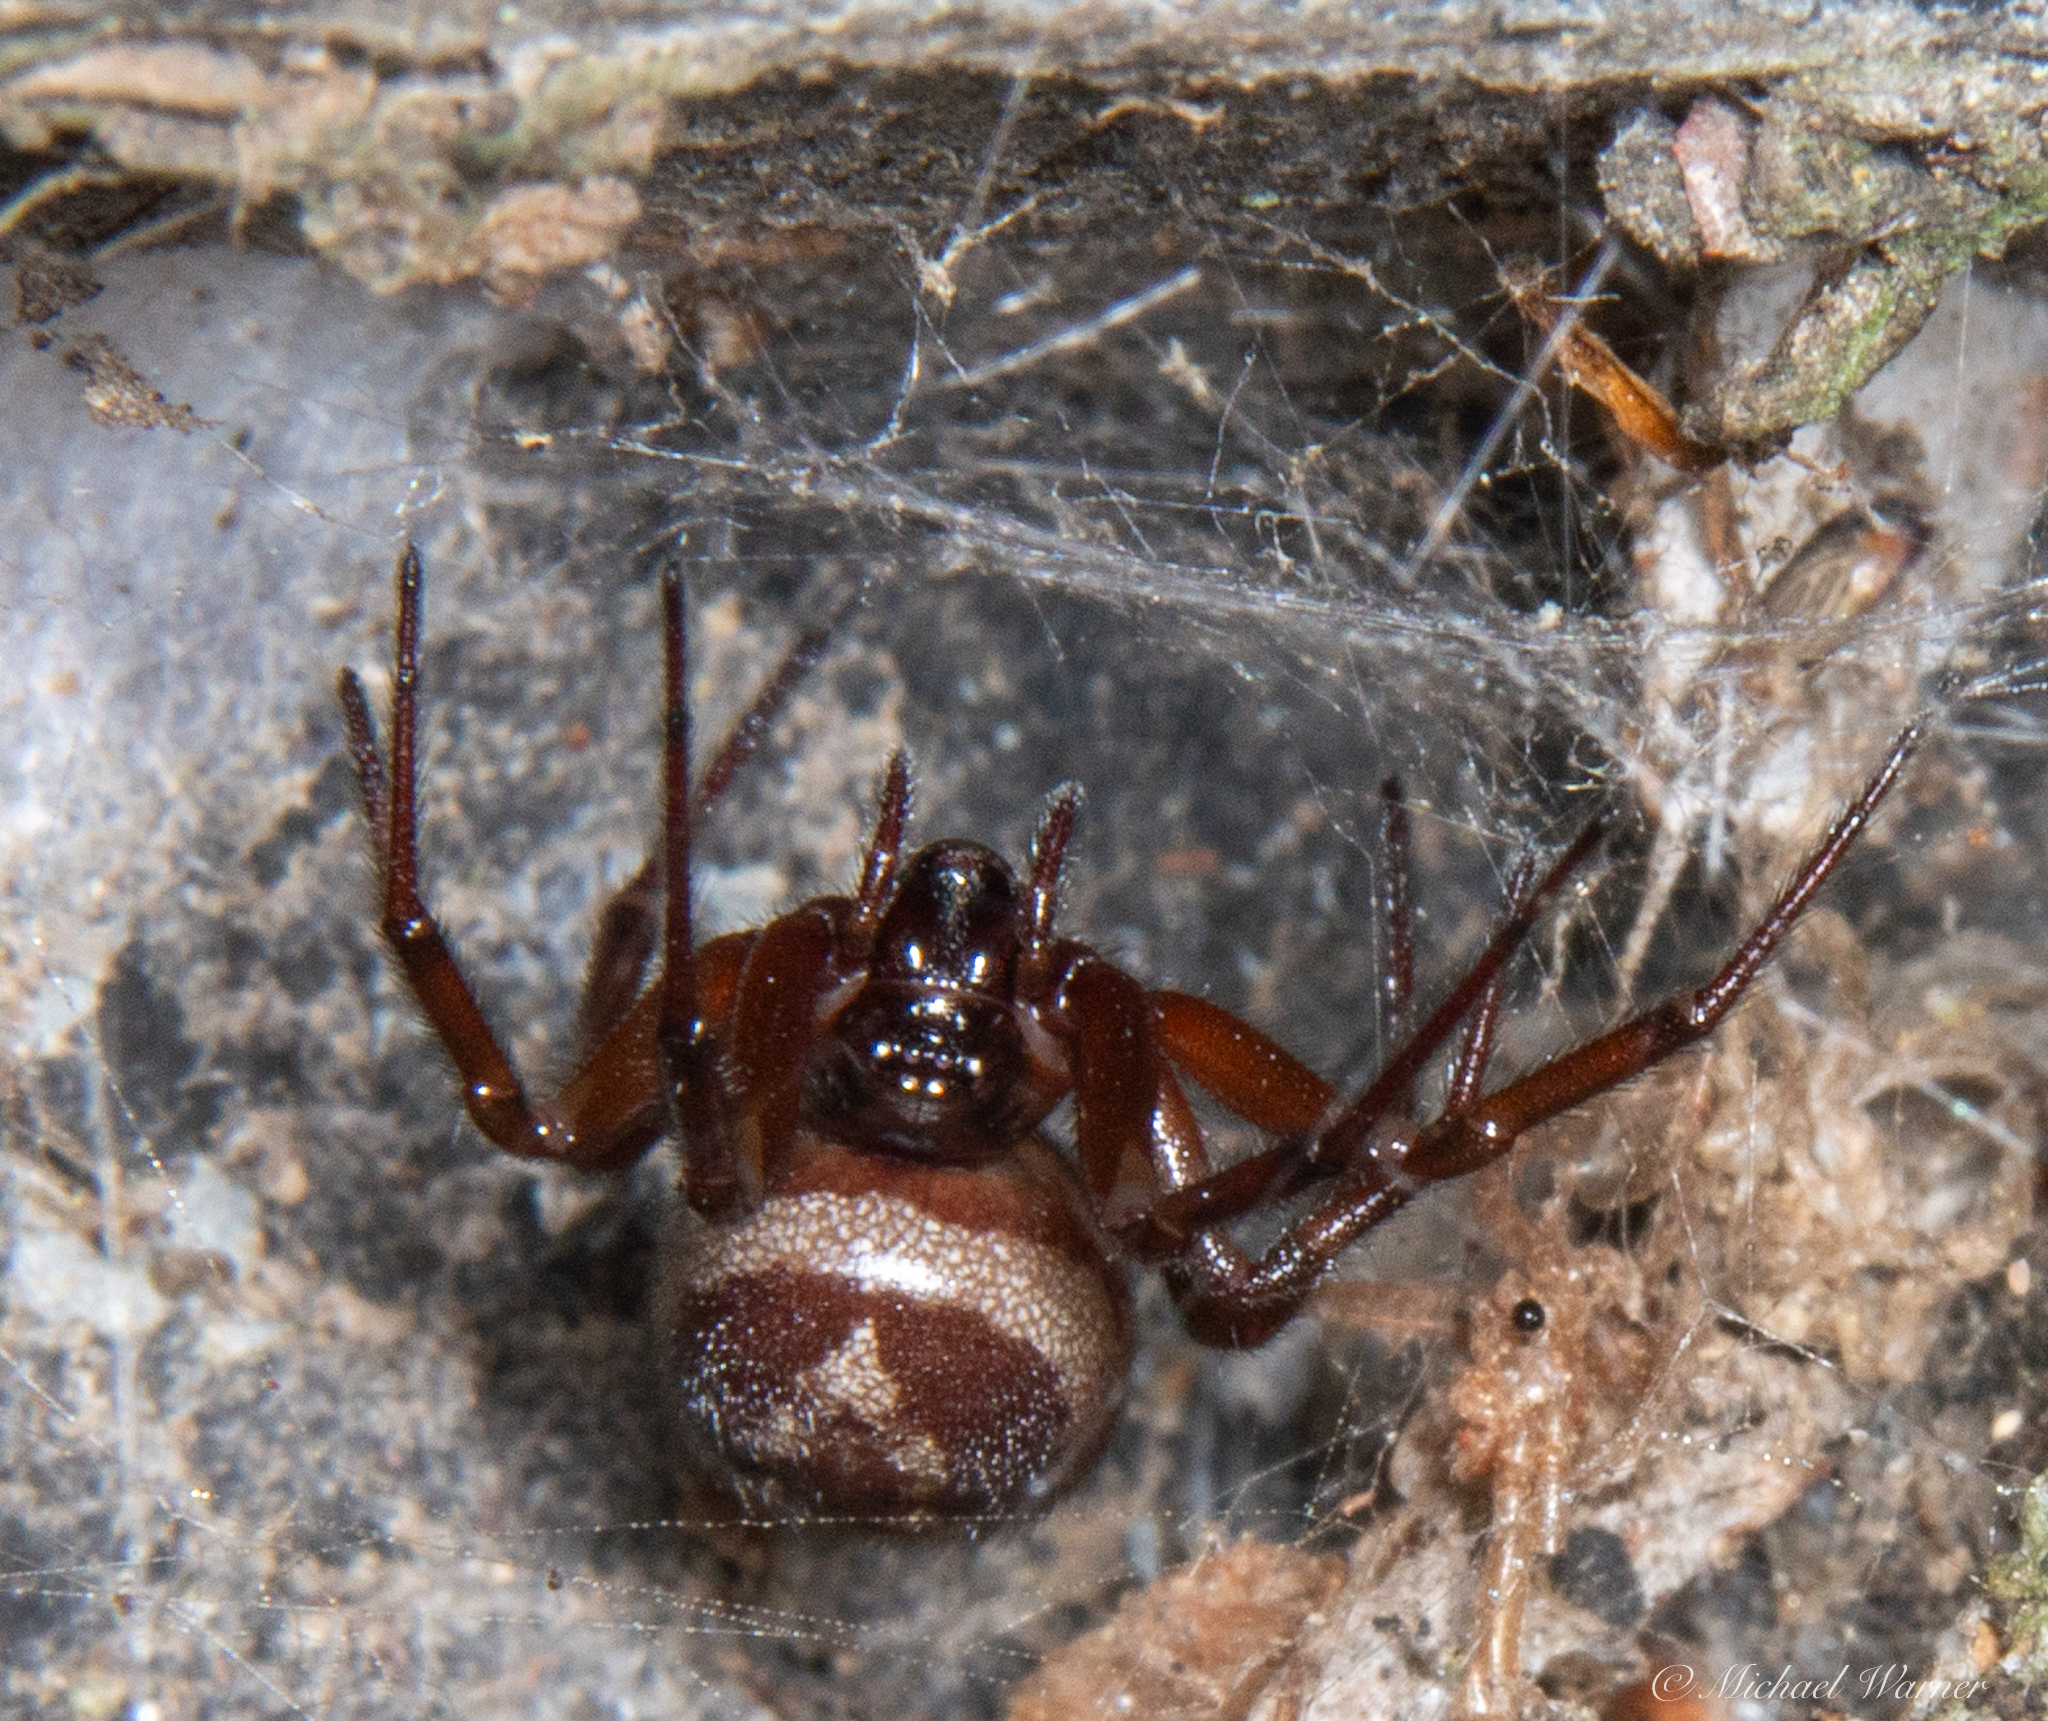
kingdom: Animalia
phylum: Arthropoda
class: Arachnida
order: Araneae
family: Theridiidae
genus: Steatoda
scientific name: Steatoda nobilis
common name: Cobweb weaver
